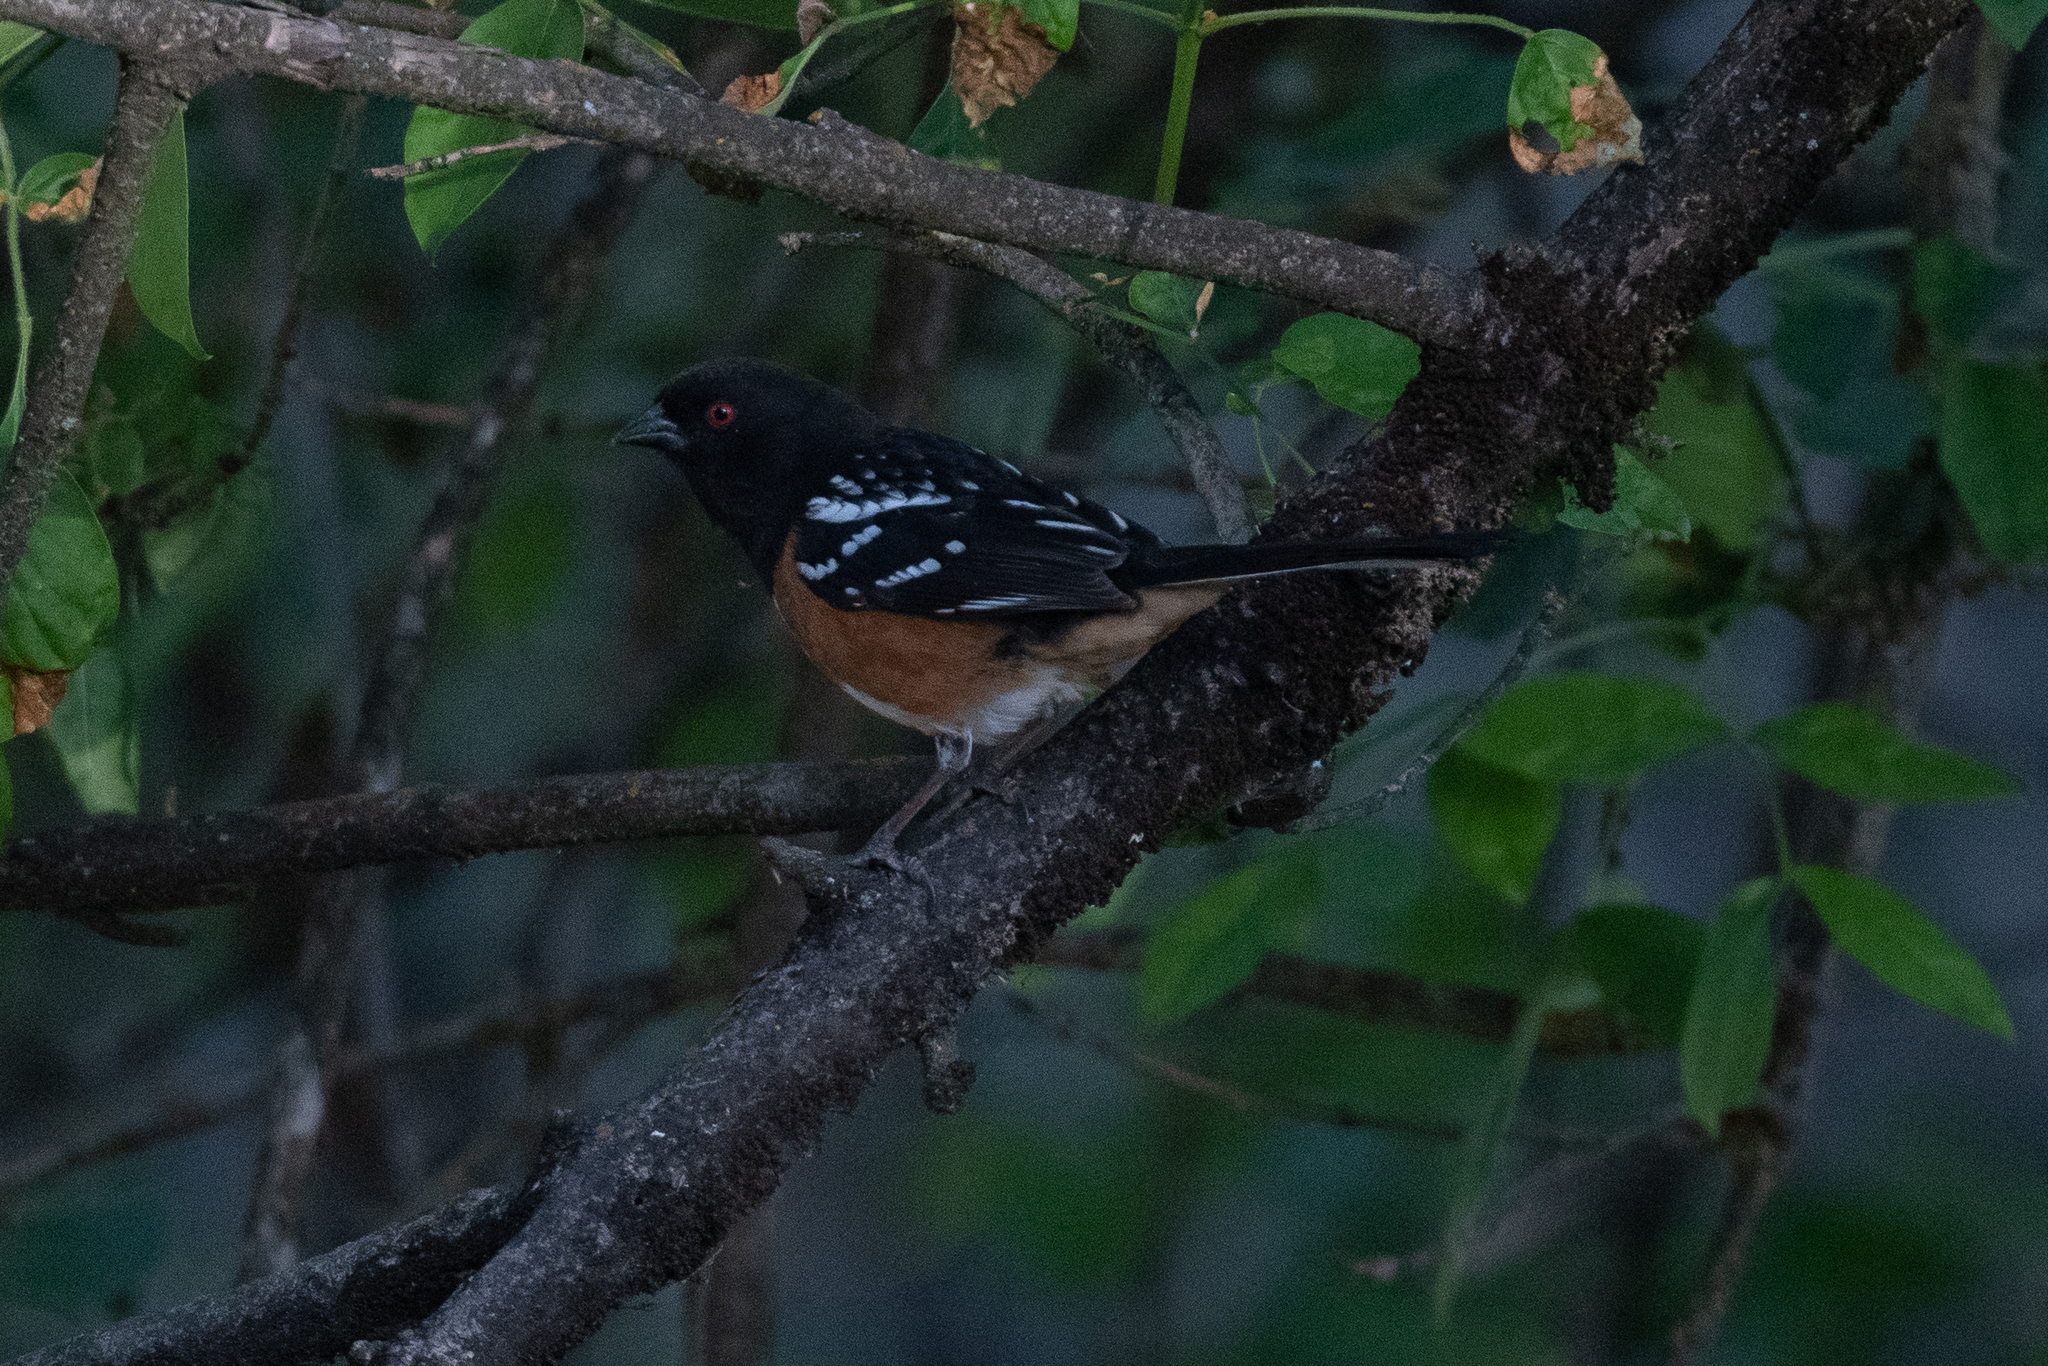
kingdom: Animalia
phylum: Chordata
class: Aves
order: Passeriformes
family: Passerellidae
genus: Pipilo
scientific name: Pipilo maculatus
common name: Spotted towhee
